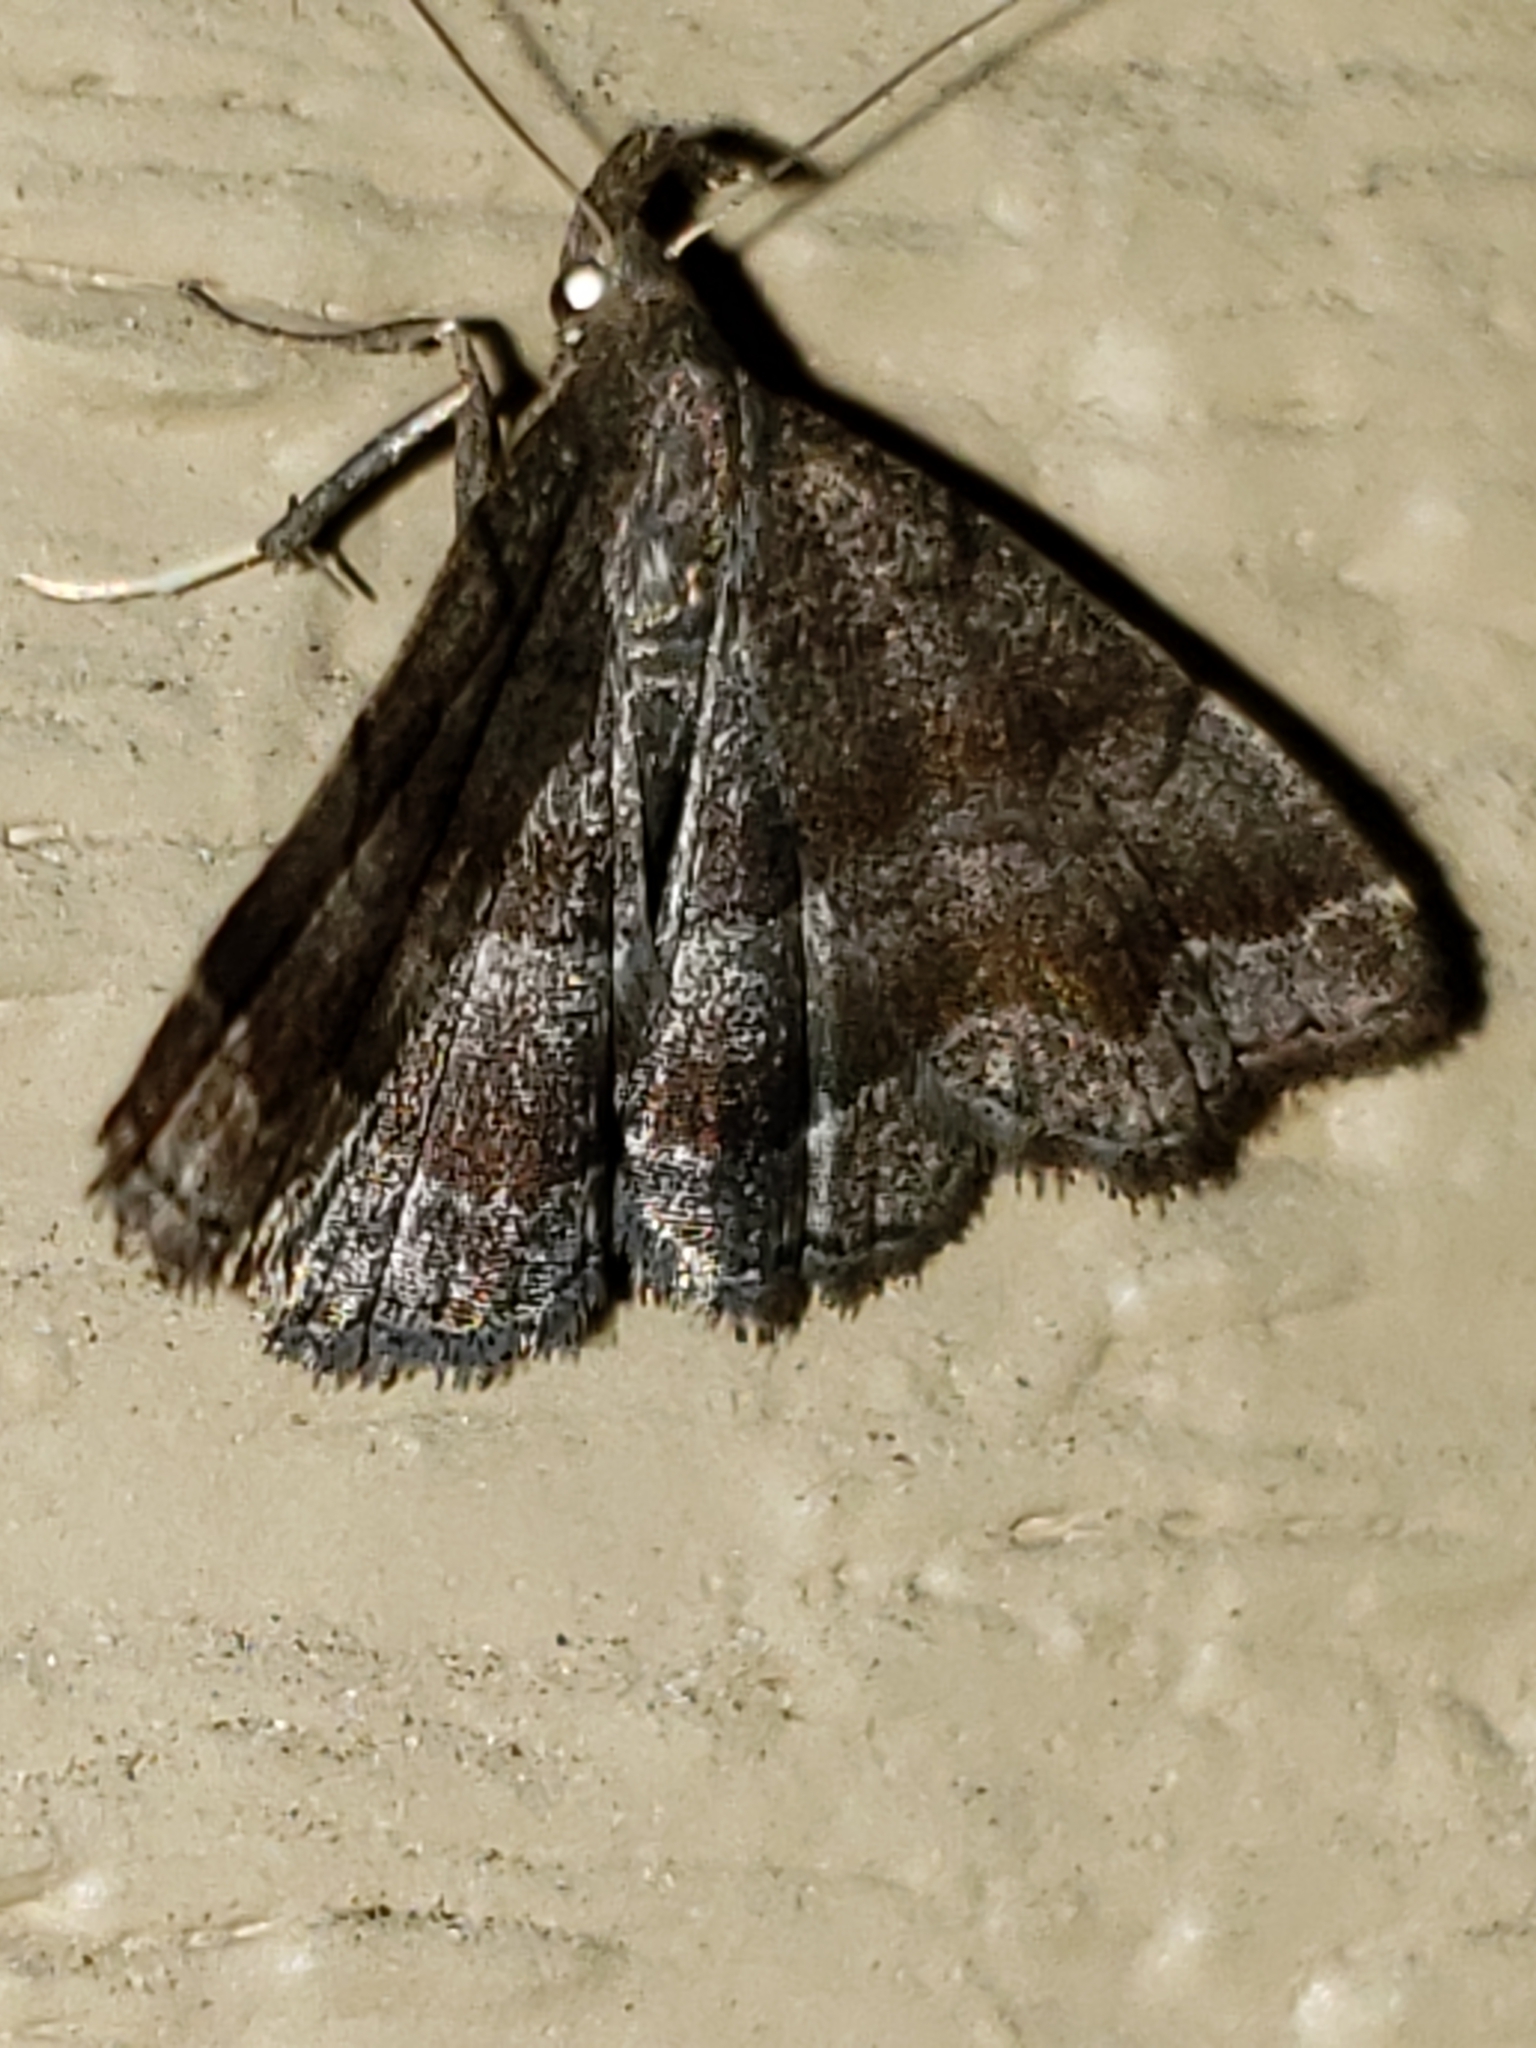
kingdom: Animalia
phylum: Arthropoda
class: Insecta
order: Lepidoptera
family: Erebidae
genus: Phalaenostola
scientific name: Phalaenostola larentioides
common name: Black-banded owlet
